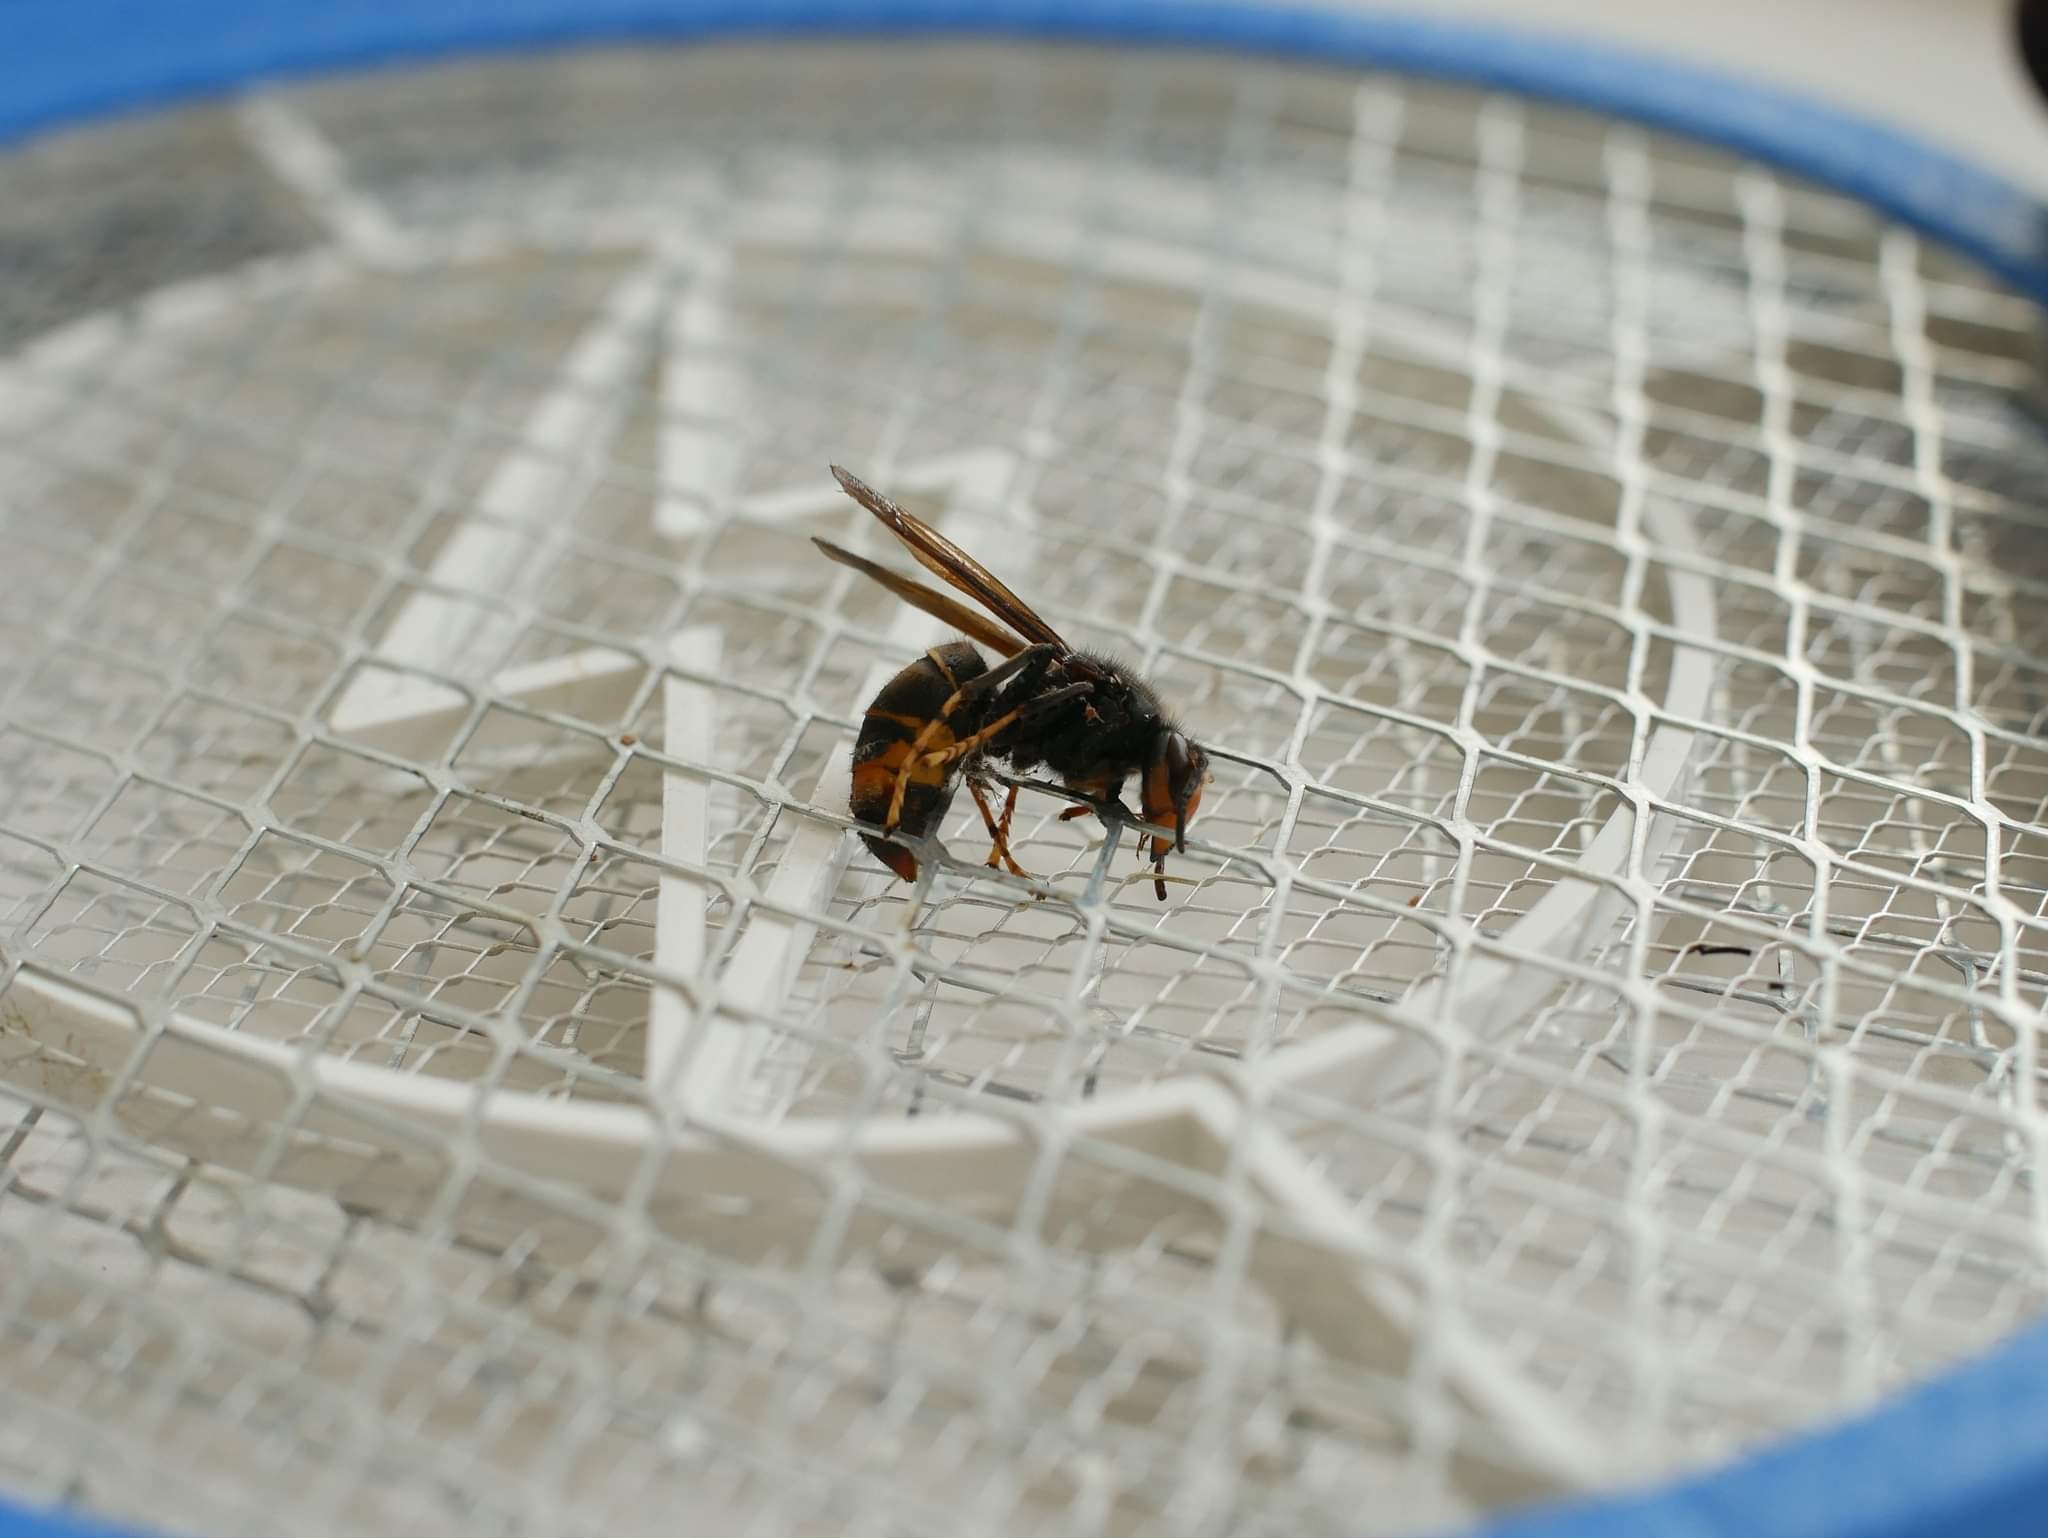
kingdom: Animalia
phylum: Arthropoda
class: Insecta
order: Hymenoptera
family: Vespidae
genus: Vespa
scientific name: Vespa velutina
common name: Asian hornet
